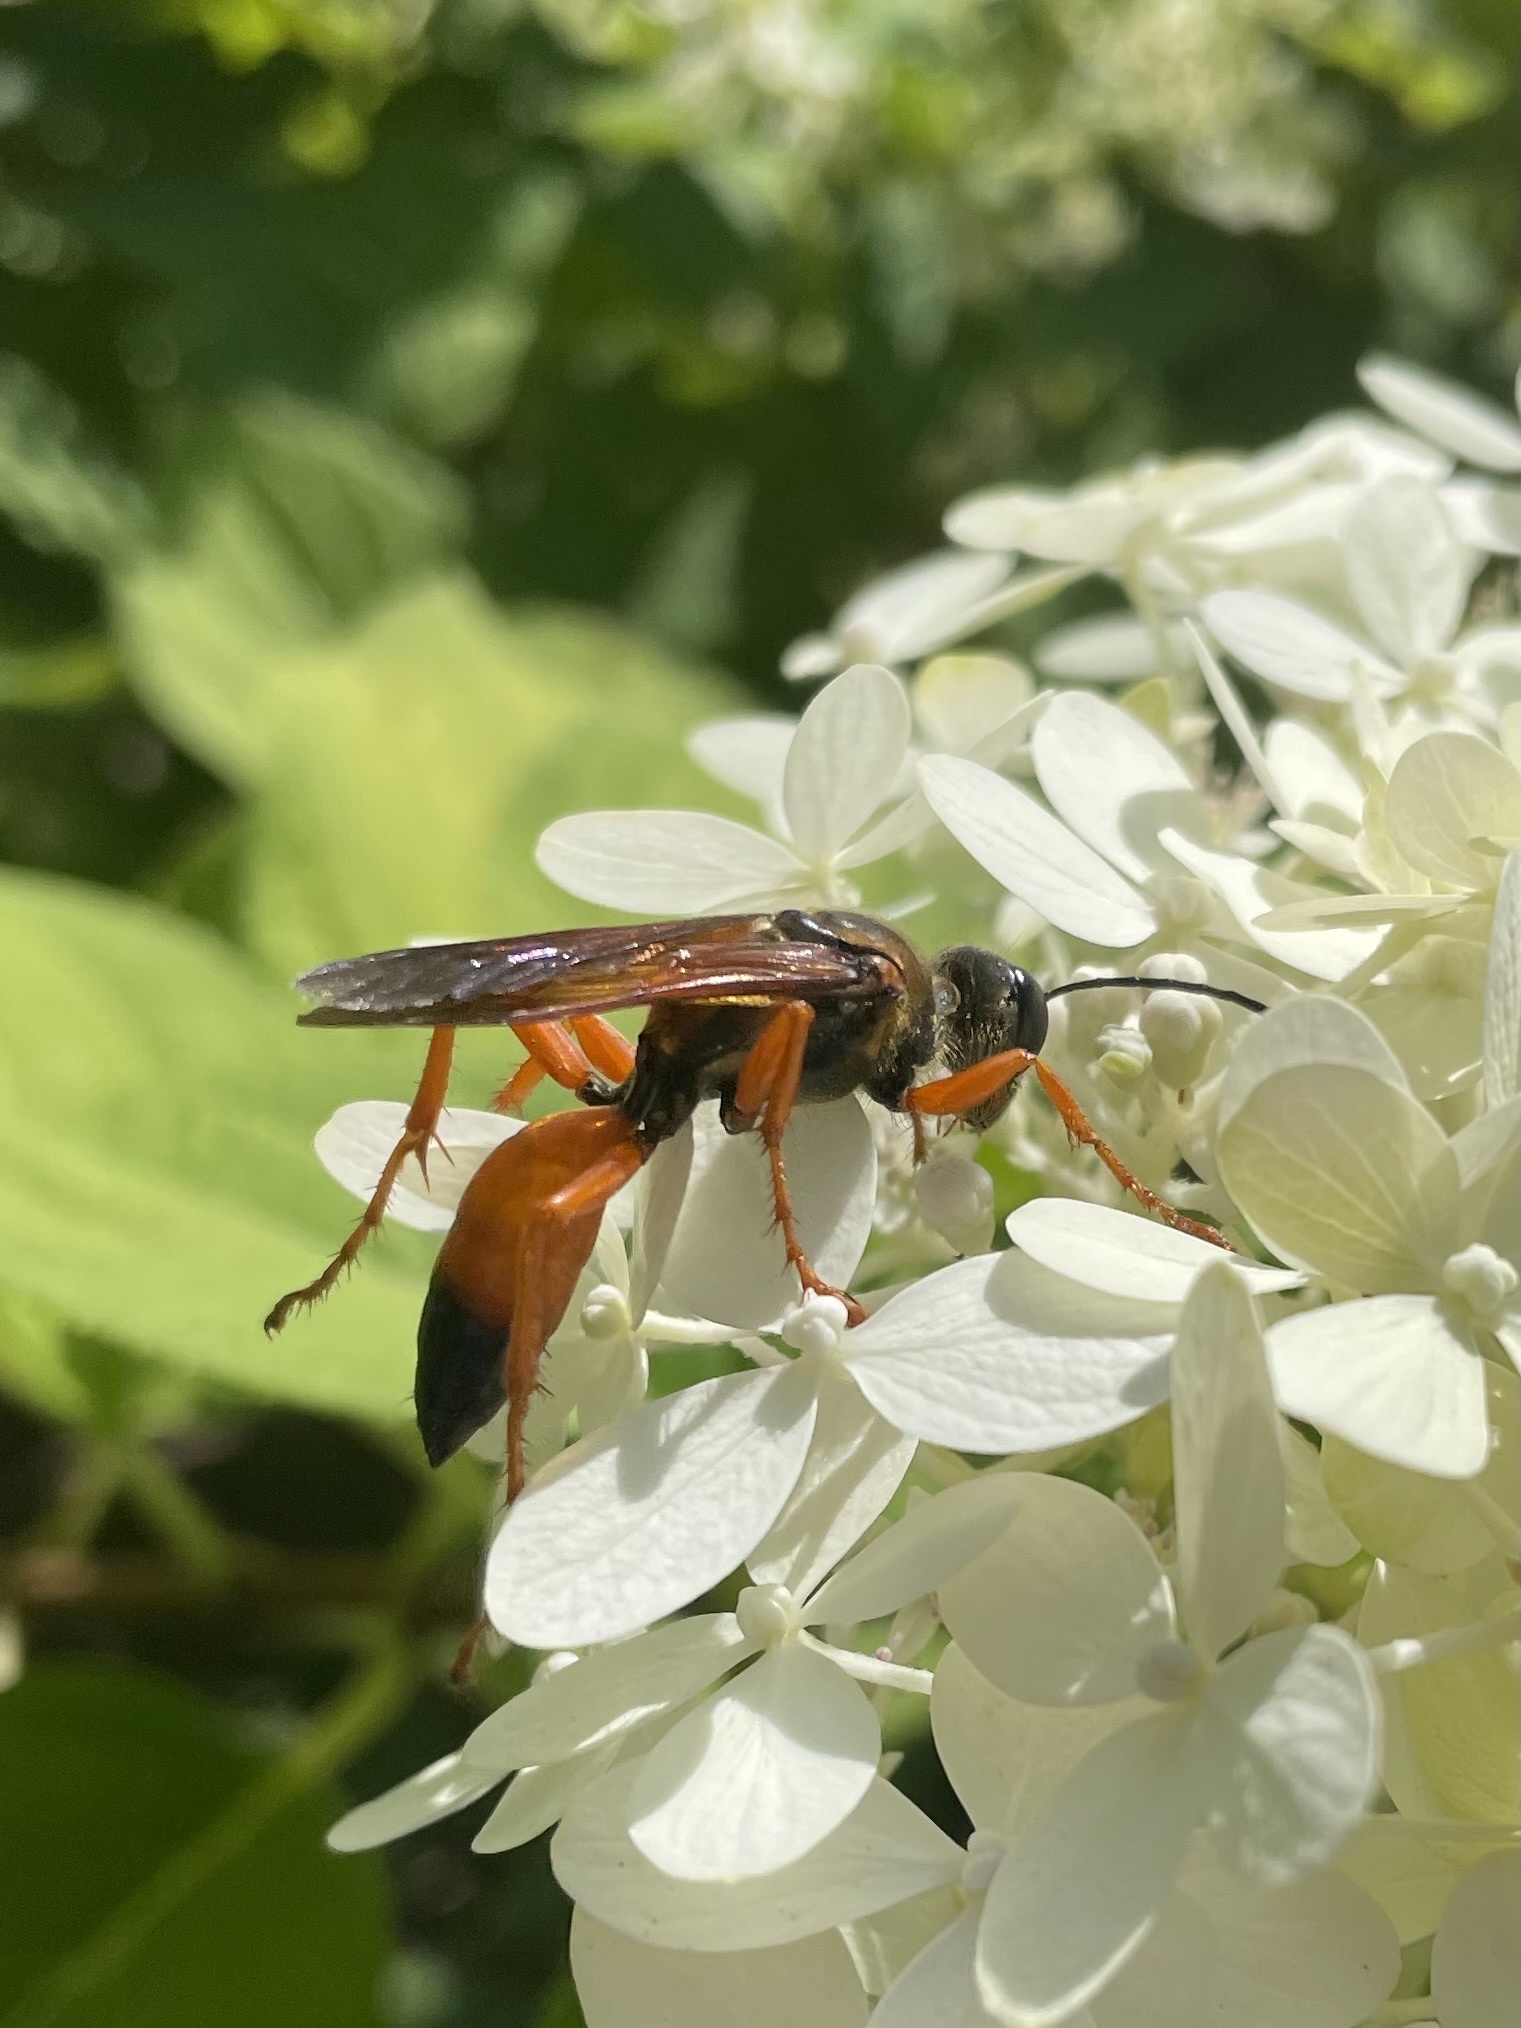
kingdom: Animalia
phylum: Arthropoda
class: Insecta
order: Hymenoptera
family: Sphecidae
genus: Sphex
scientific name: Sphex ichneumoneus
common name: Great golden digger wasp
